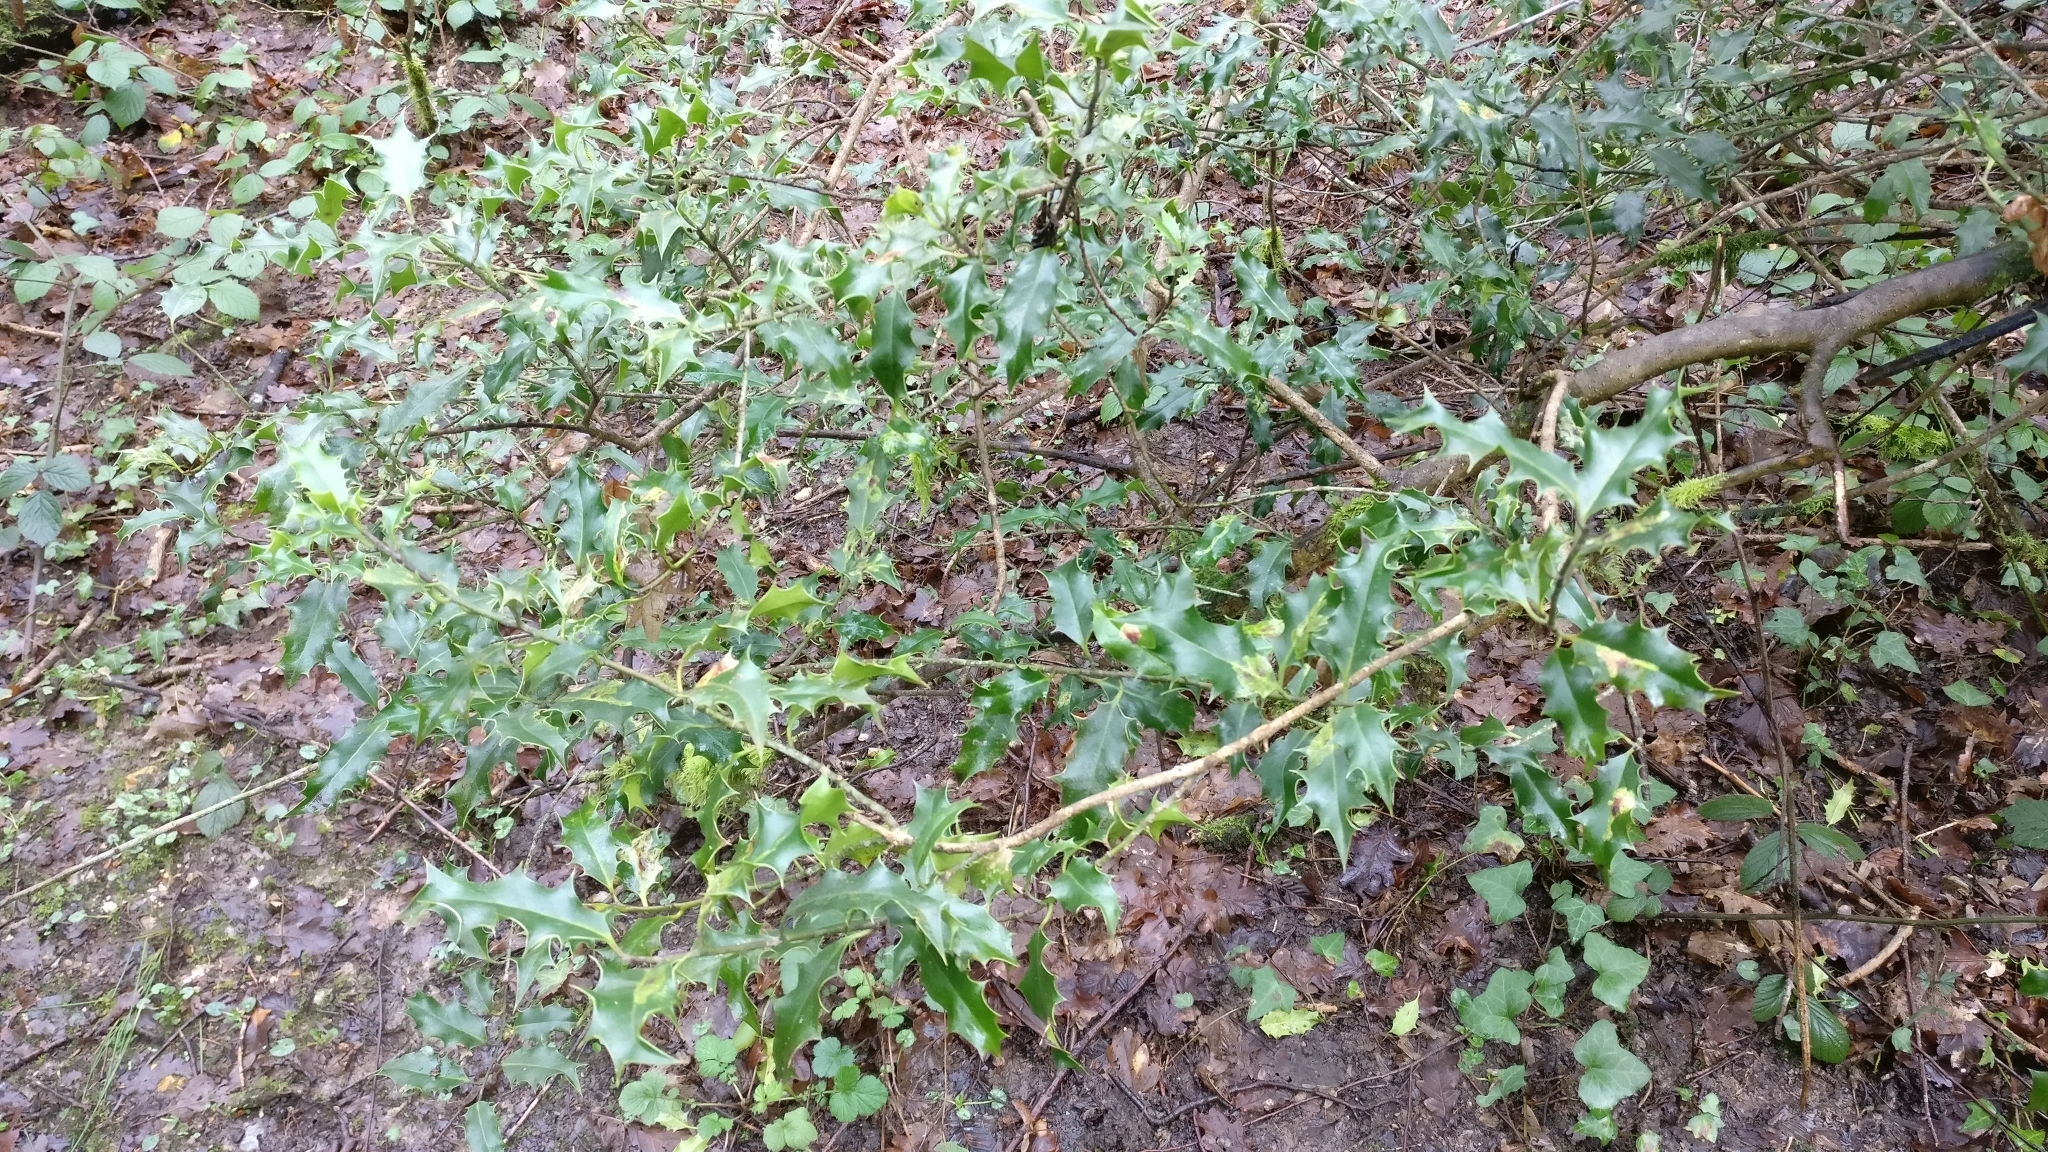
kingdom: Plantae
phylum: Tracheophyta
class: Magnoliopsida
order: Aquifoliales
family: Aquifoliaceae
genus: Ilex
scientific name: Ilex aquifolium
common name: English holly
